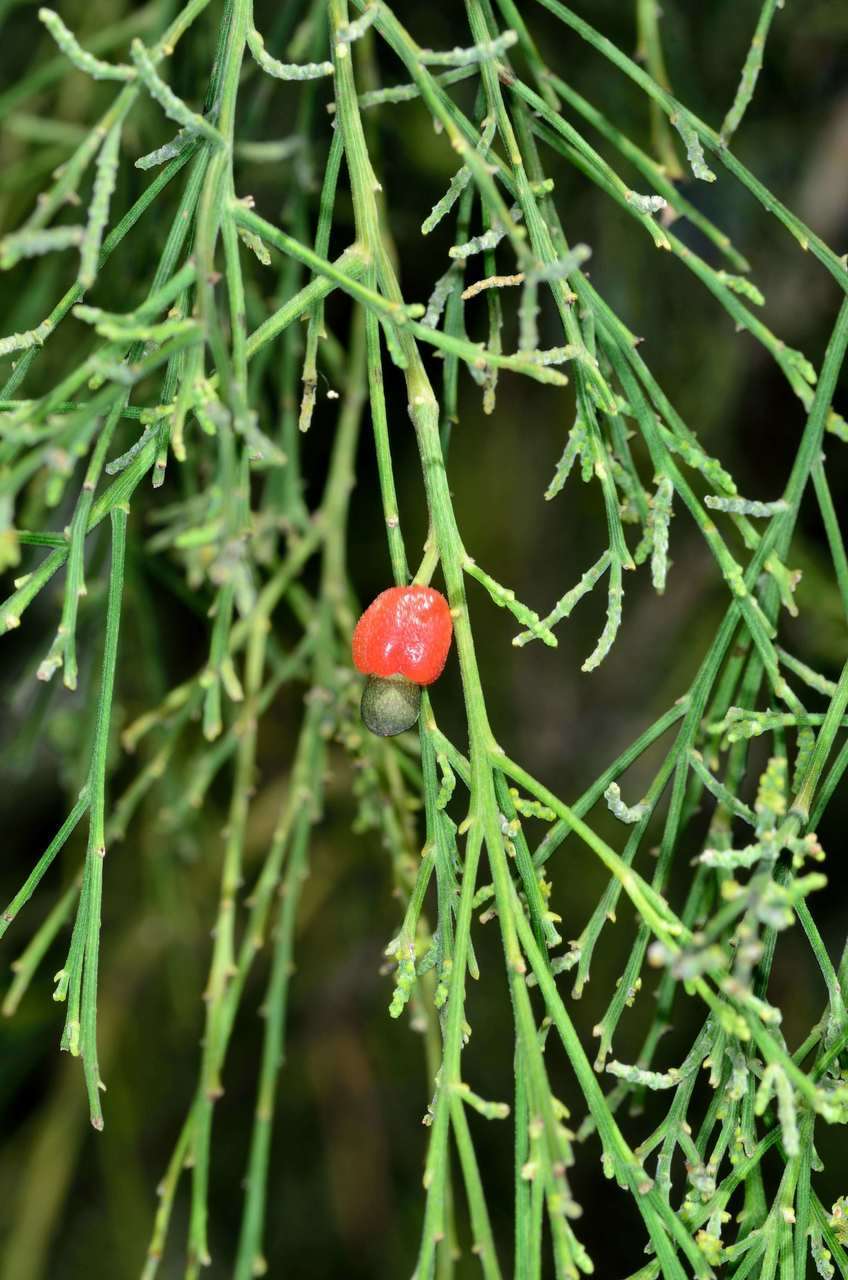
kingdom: Plantae
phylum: Tracheophyta
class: Magnoliopsida
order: Santalales
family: Santalaceae
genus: Exocarpos
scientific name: Exocarpos cupressiformis
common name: Cherry ballart
